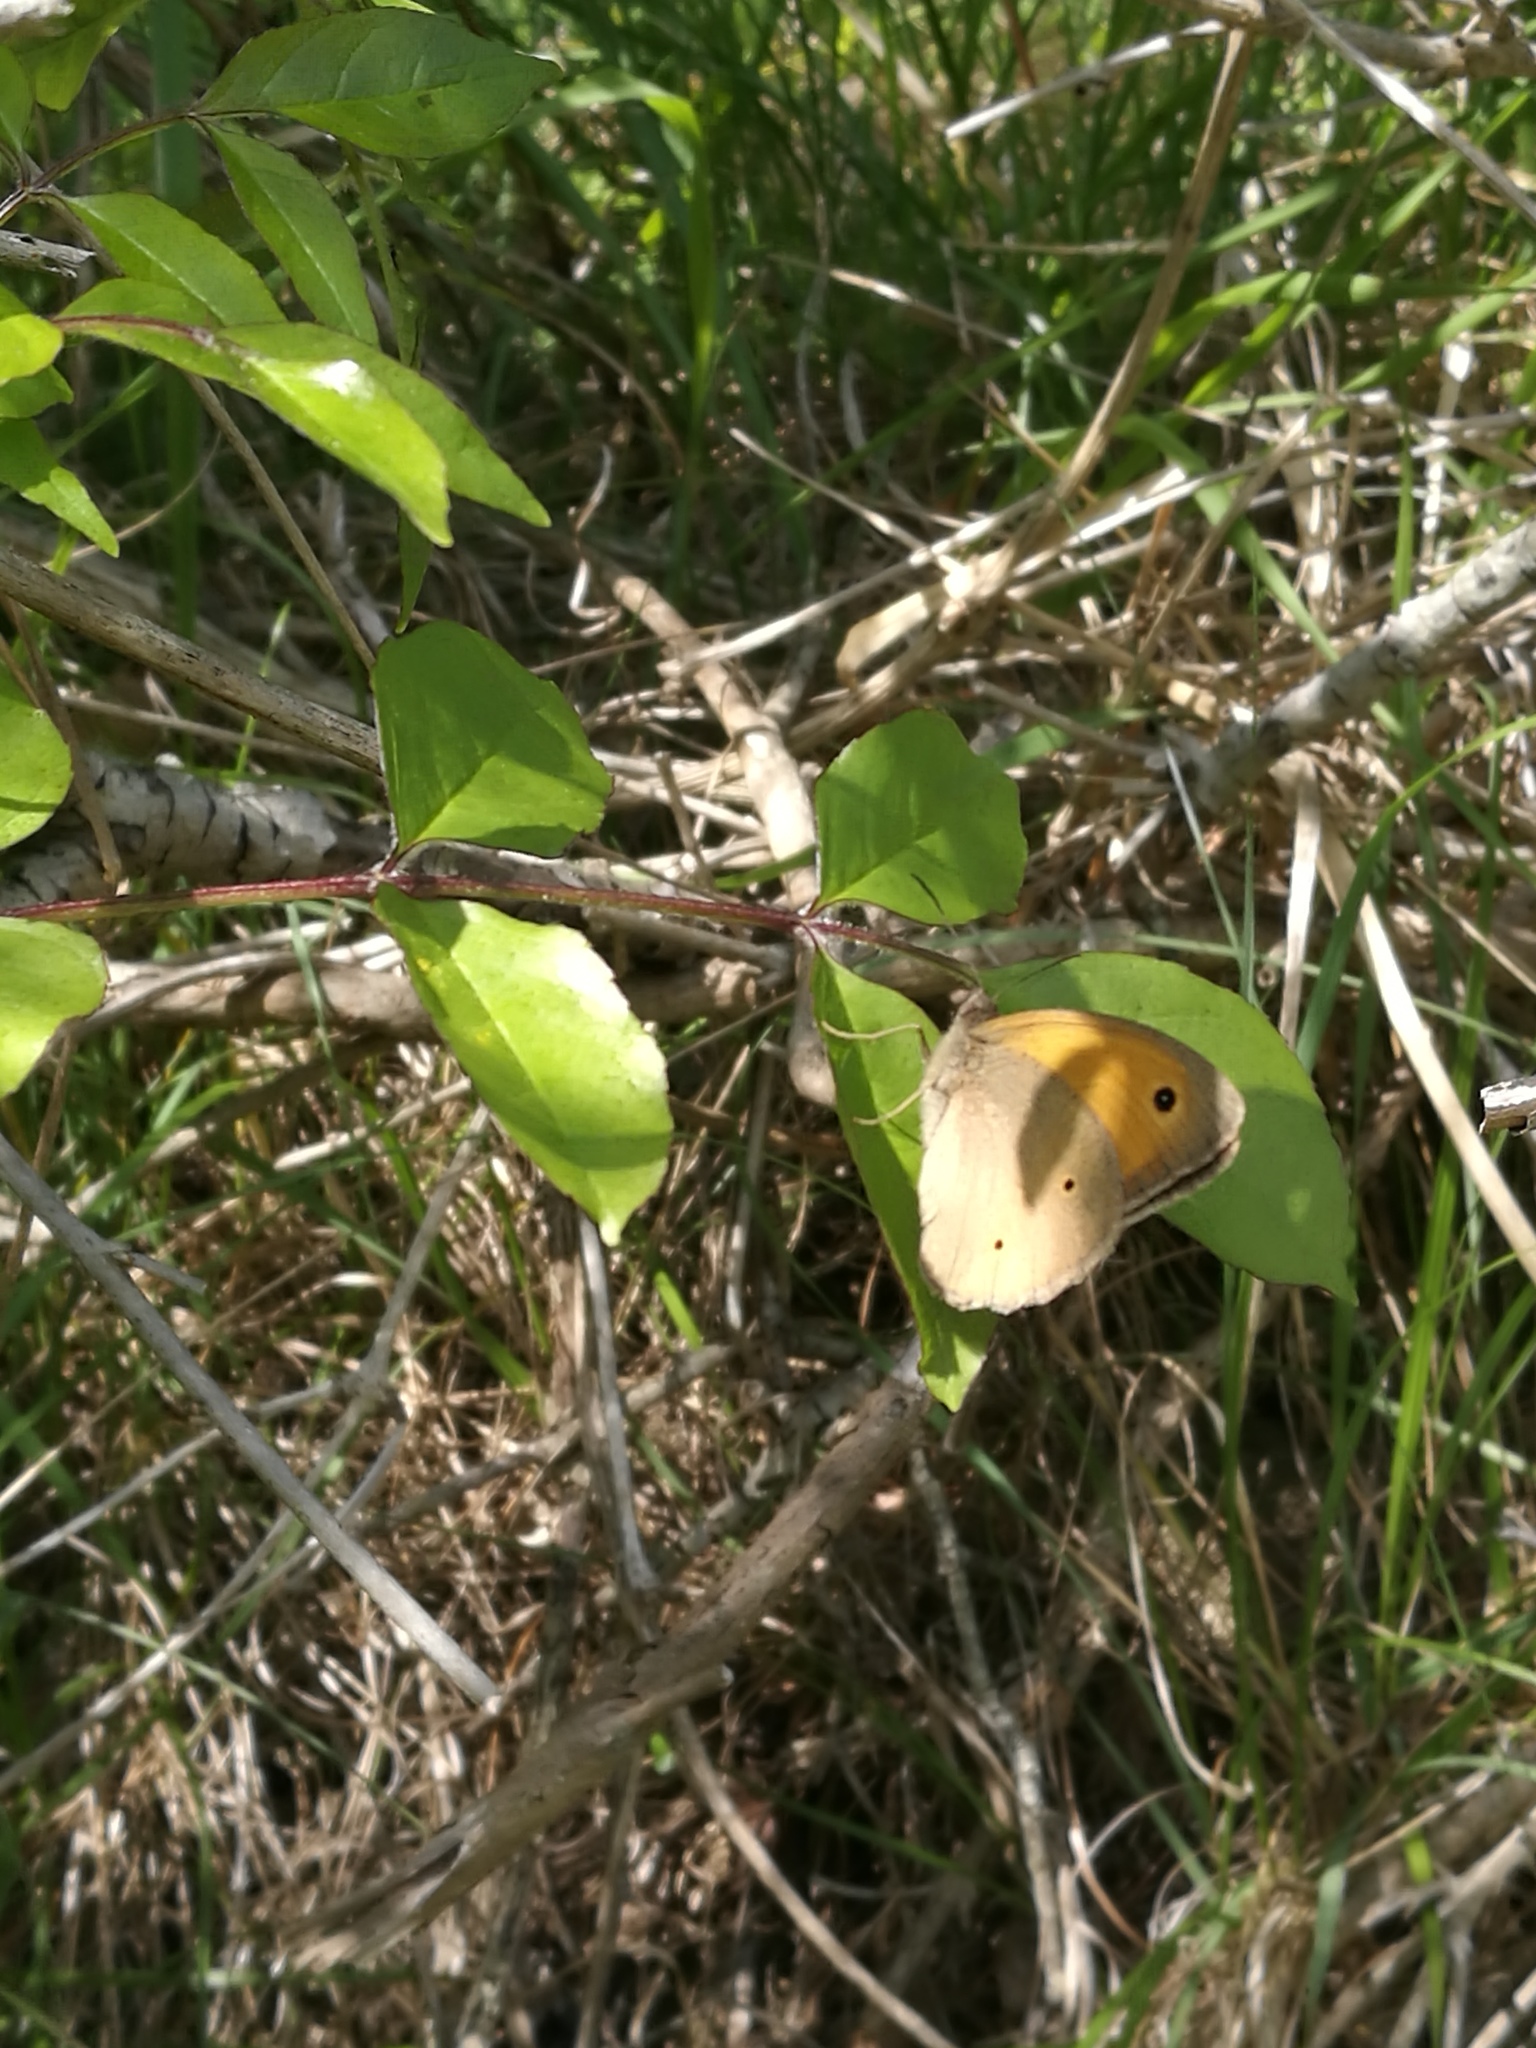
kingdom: Animalia
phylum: Arthropoda
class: Insecta
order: Lepidoptera
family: Nymphalidae
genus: Maniola
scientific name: Maniola jurtina
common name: Meadow brown
